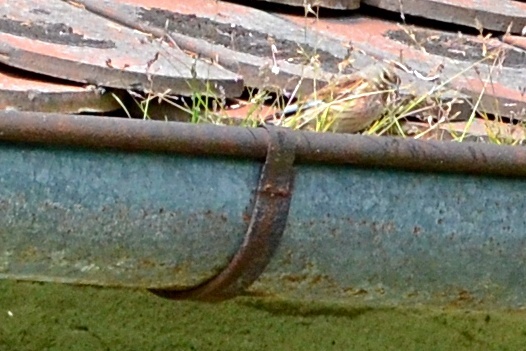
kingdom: Animalia
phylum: Chordata
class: Aves
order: Passeriformes
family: Fringillidae
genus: Linaria
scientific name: Linaria cannabina
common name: Common linnet
